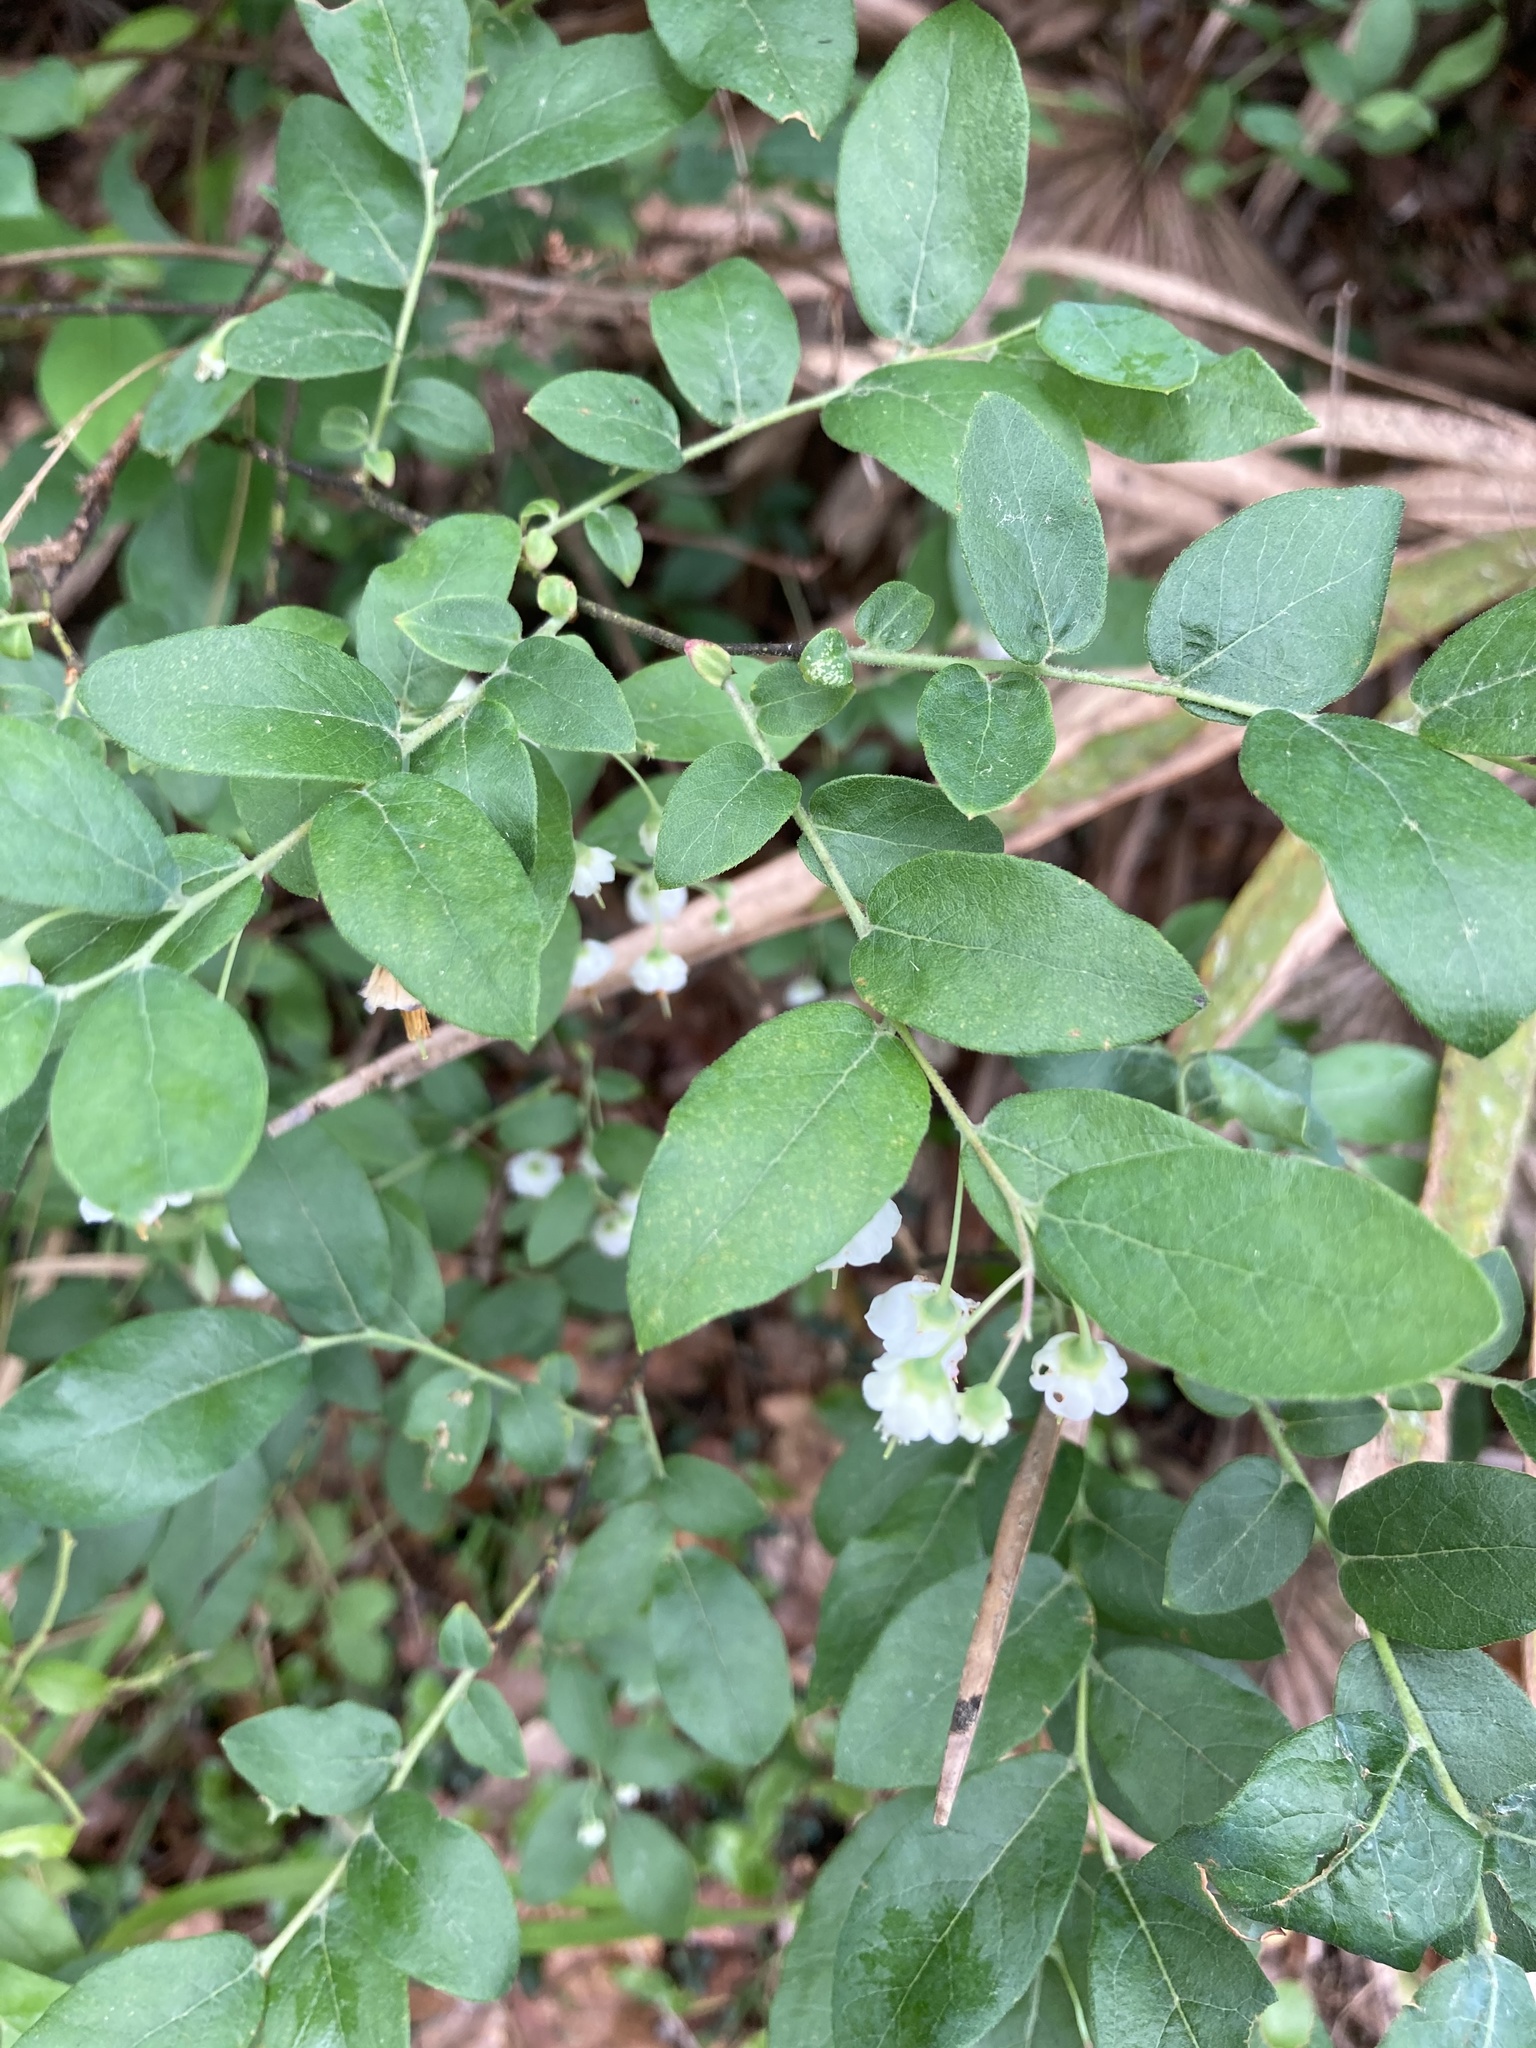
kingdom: Plantae
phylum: Tracheophyta
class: Magnoliopsida
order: Ericales
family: Ericaceae
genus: Vaccinium
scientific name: Vaccinium stamineum
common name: Deerberry
